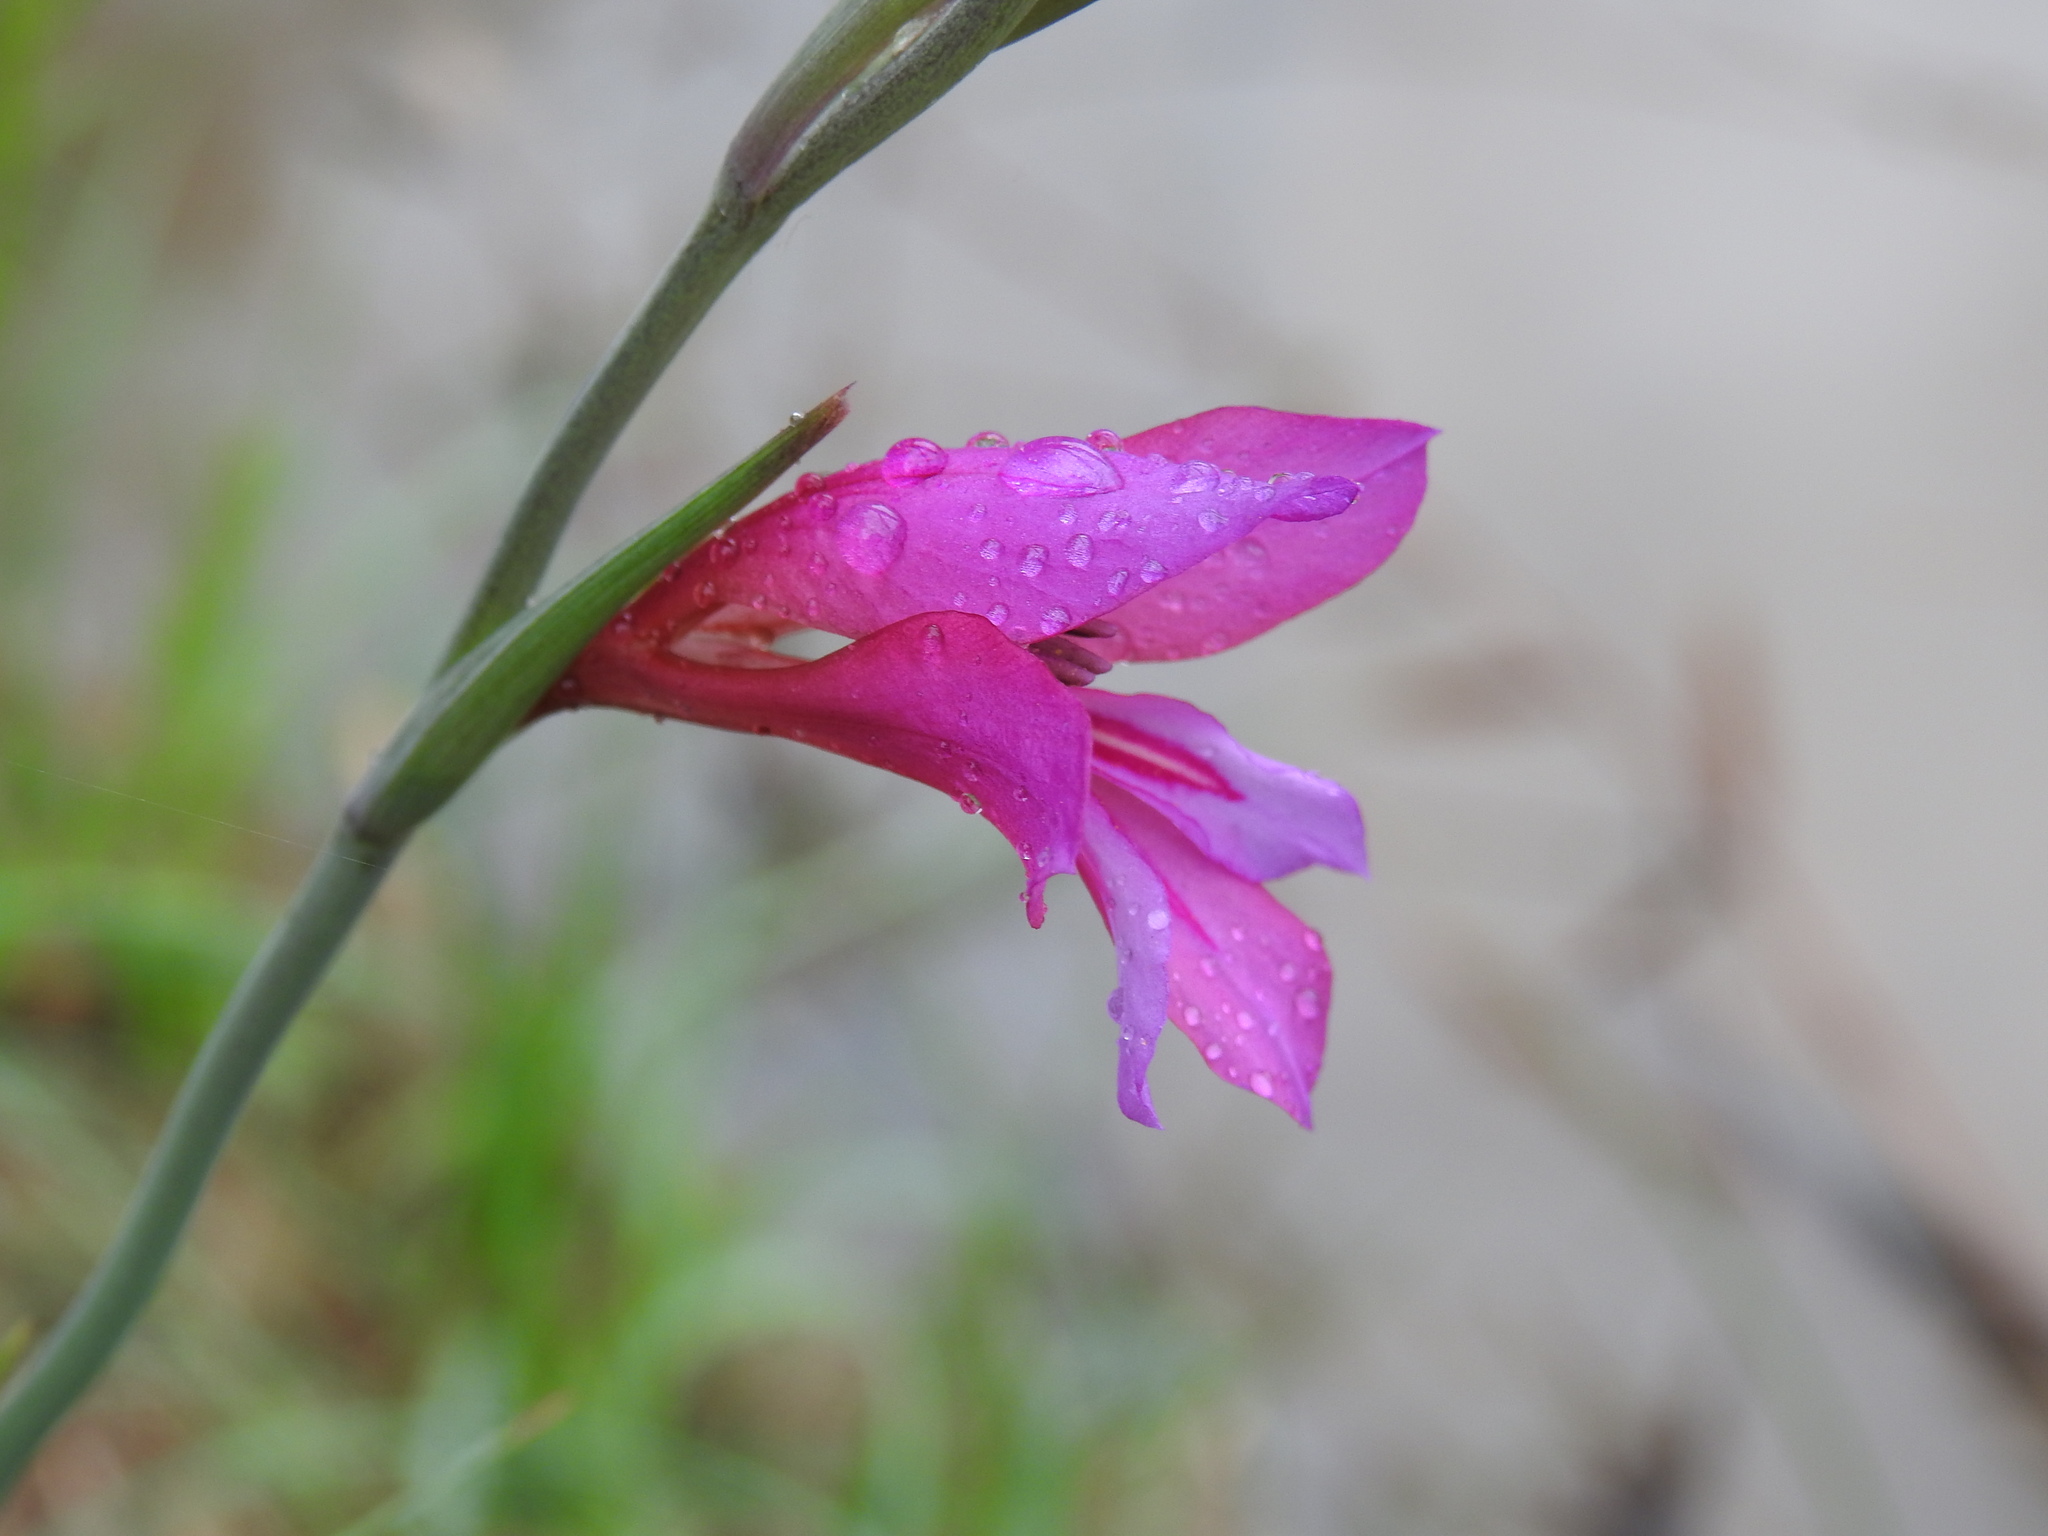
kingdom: Plantae
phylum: Tracheophyta
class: Liliopsida
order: Asparagales
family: Iridaceae
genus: Gladiolus
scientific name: Gladiolus dubius
